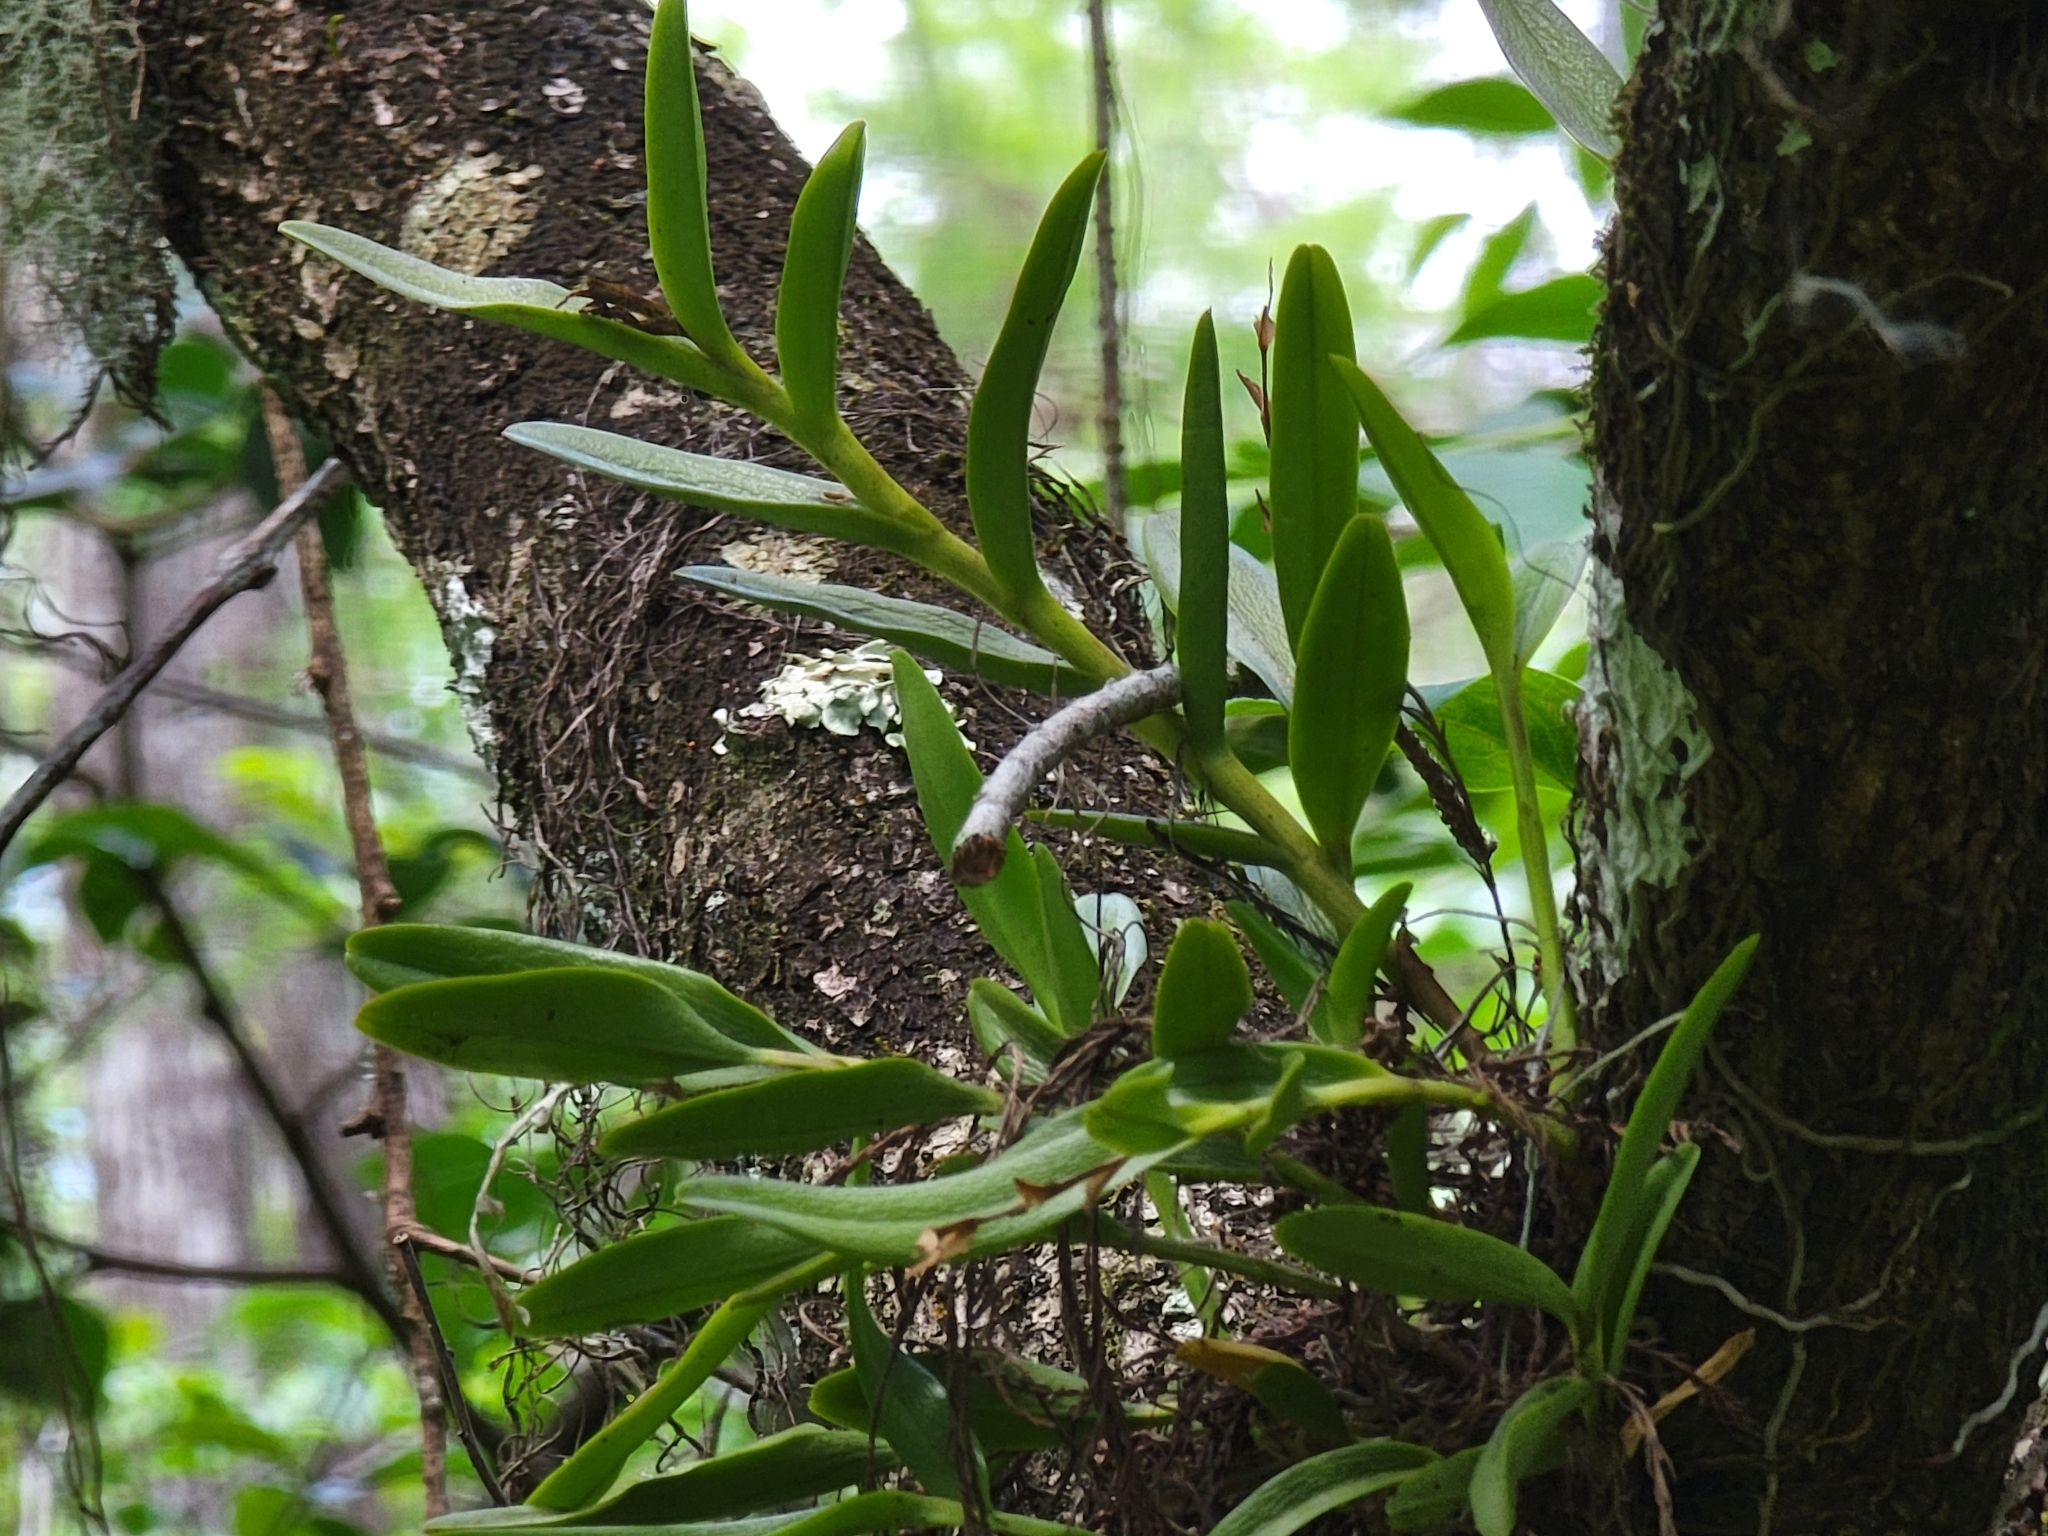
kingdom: Plantae
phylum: Tracheophyta
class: Liliopsida
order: Asparagales
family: Orchidaceae
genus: Epidendrum
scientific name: Epidendrum rigidum
